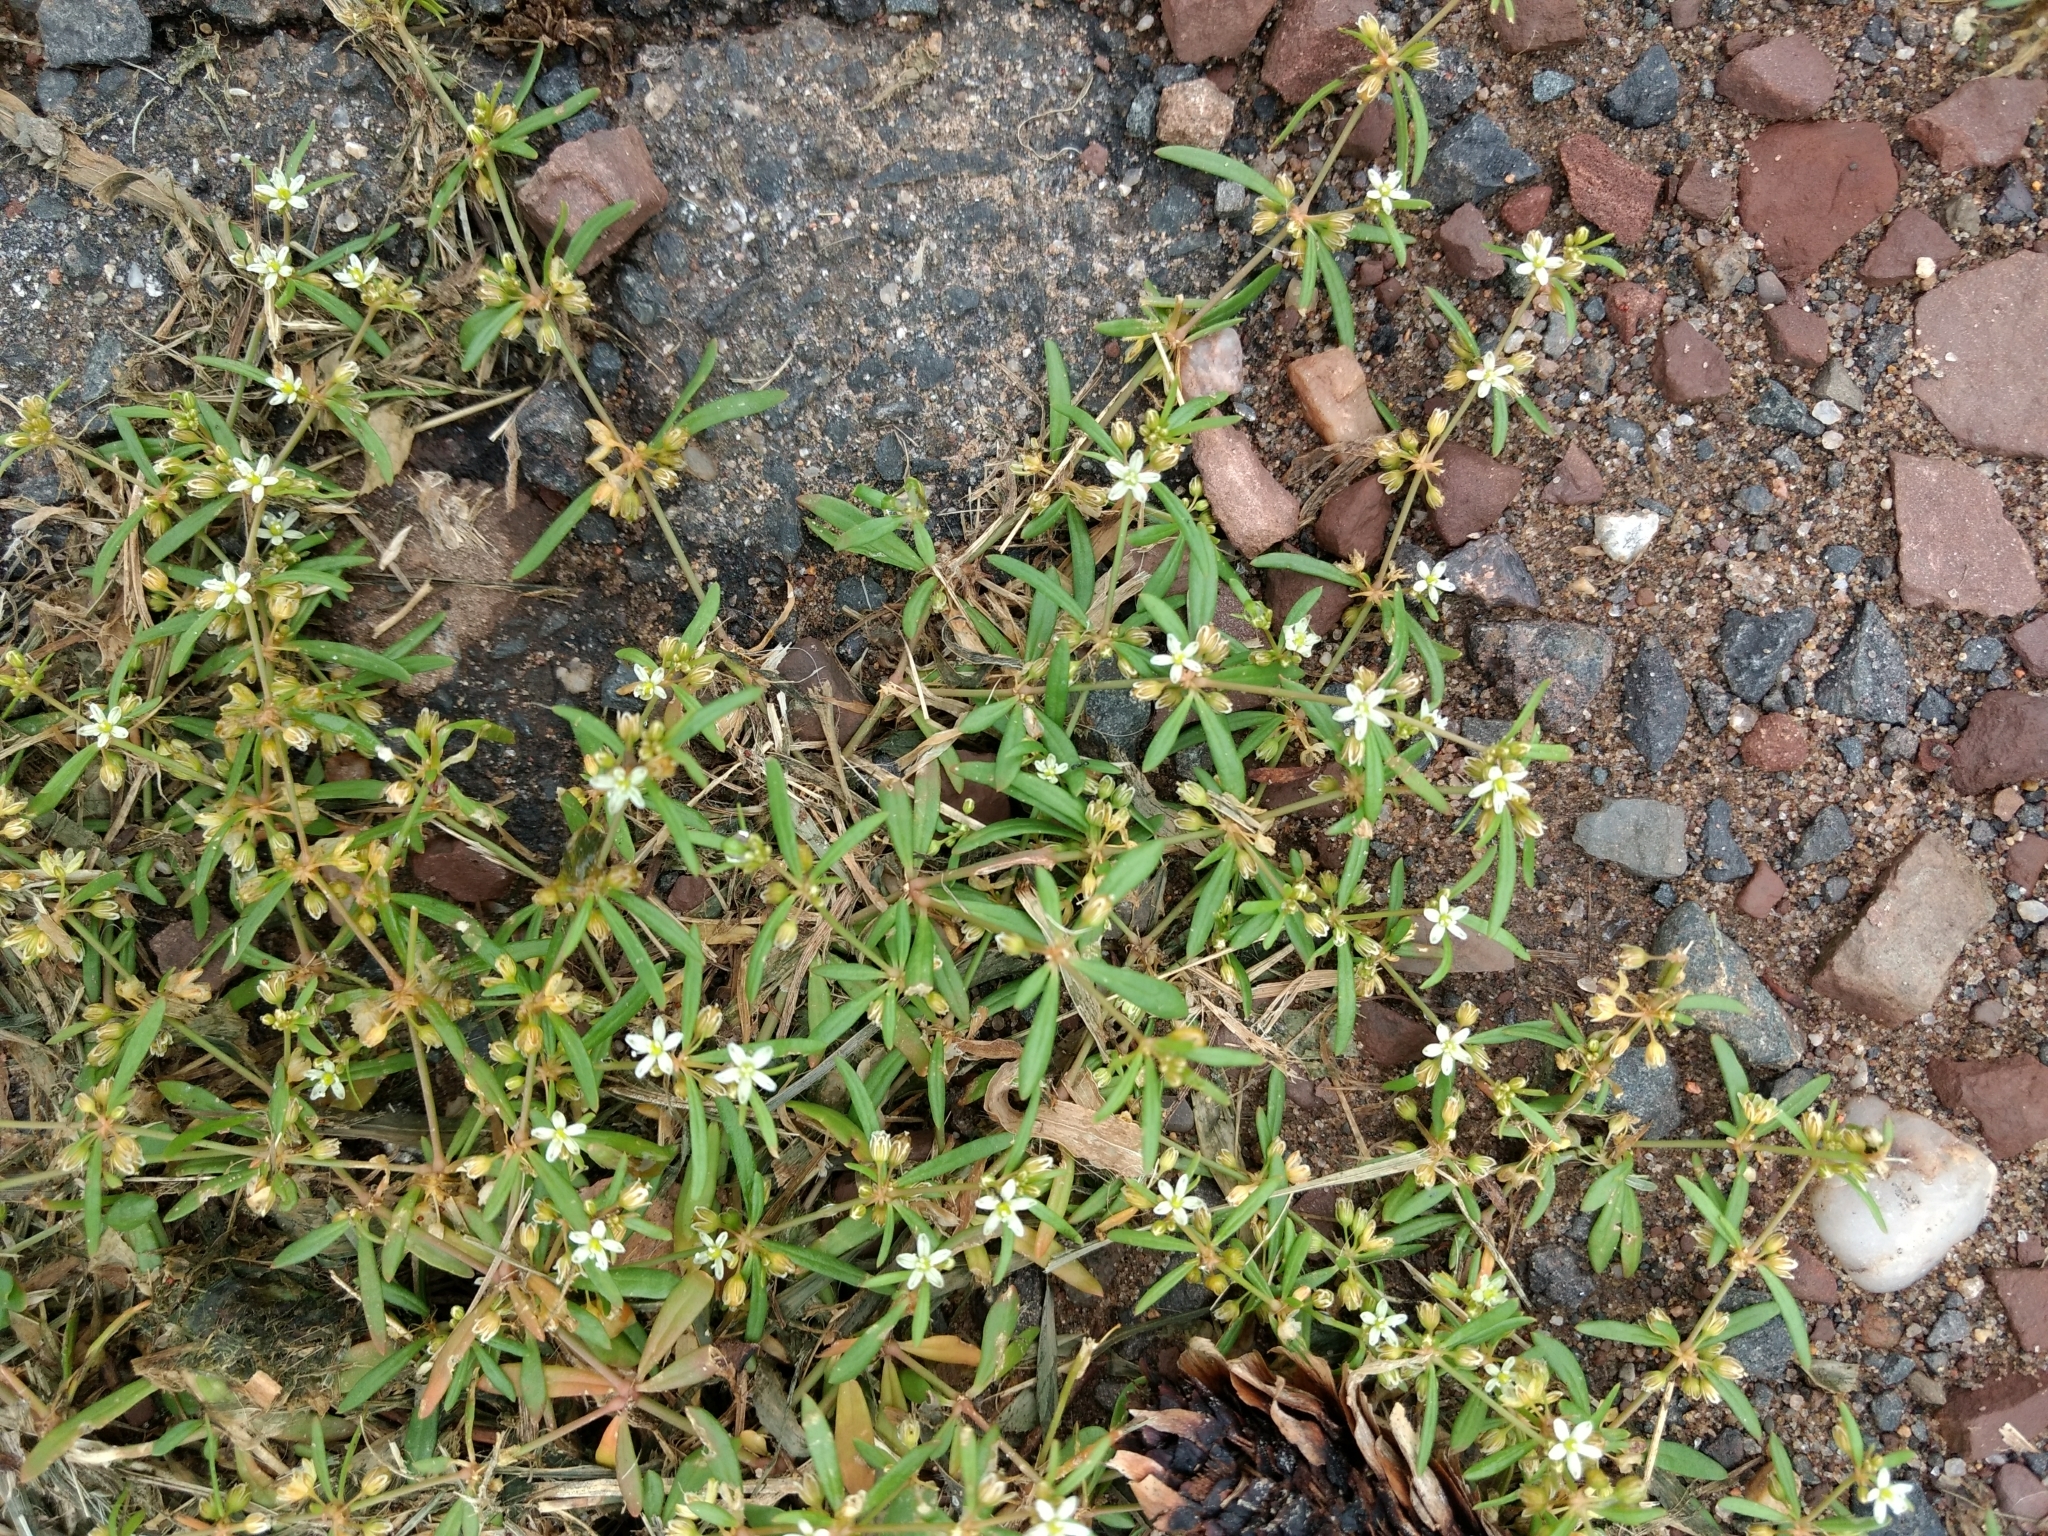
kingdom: Plantae
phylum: Tracheophyta
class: Magnoliopsida
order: Caryophyllales
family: Molluginaceae
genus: Mollugo
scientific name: Mollugo verticillata
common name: Green carpetweed
